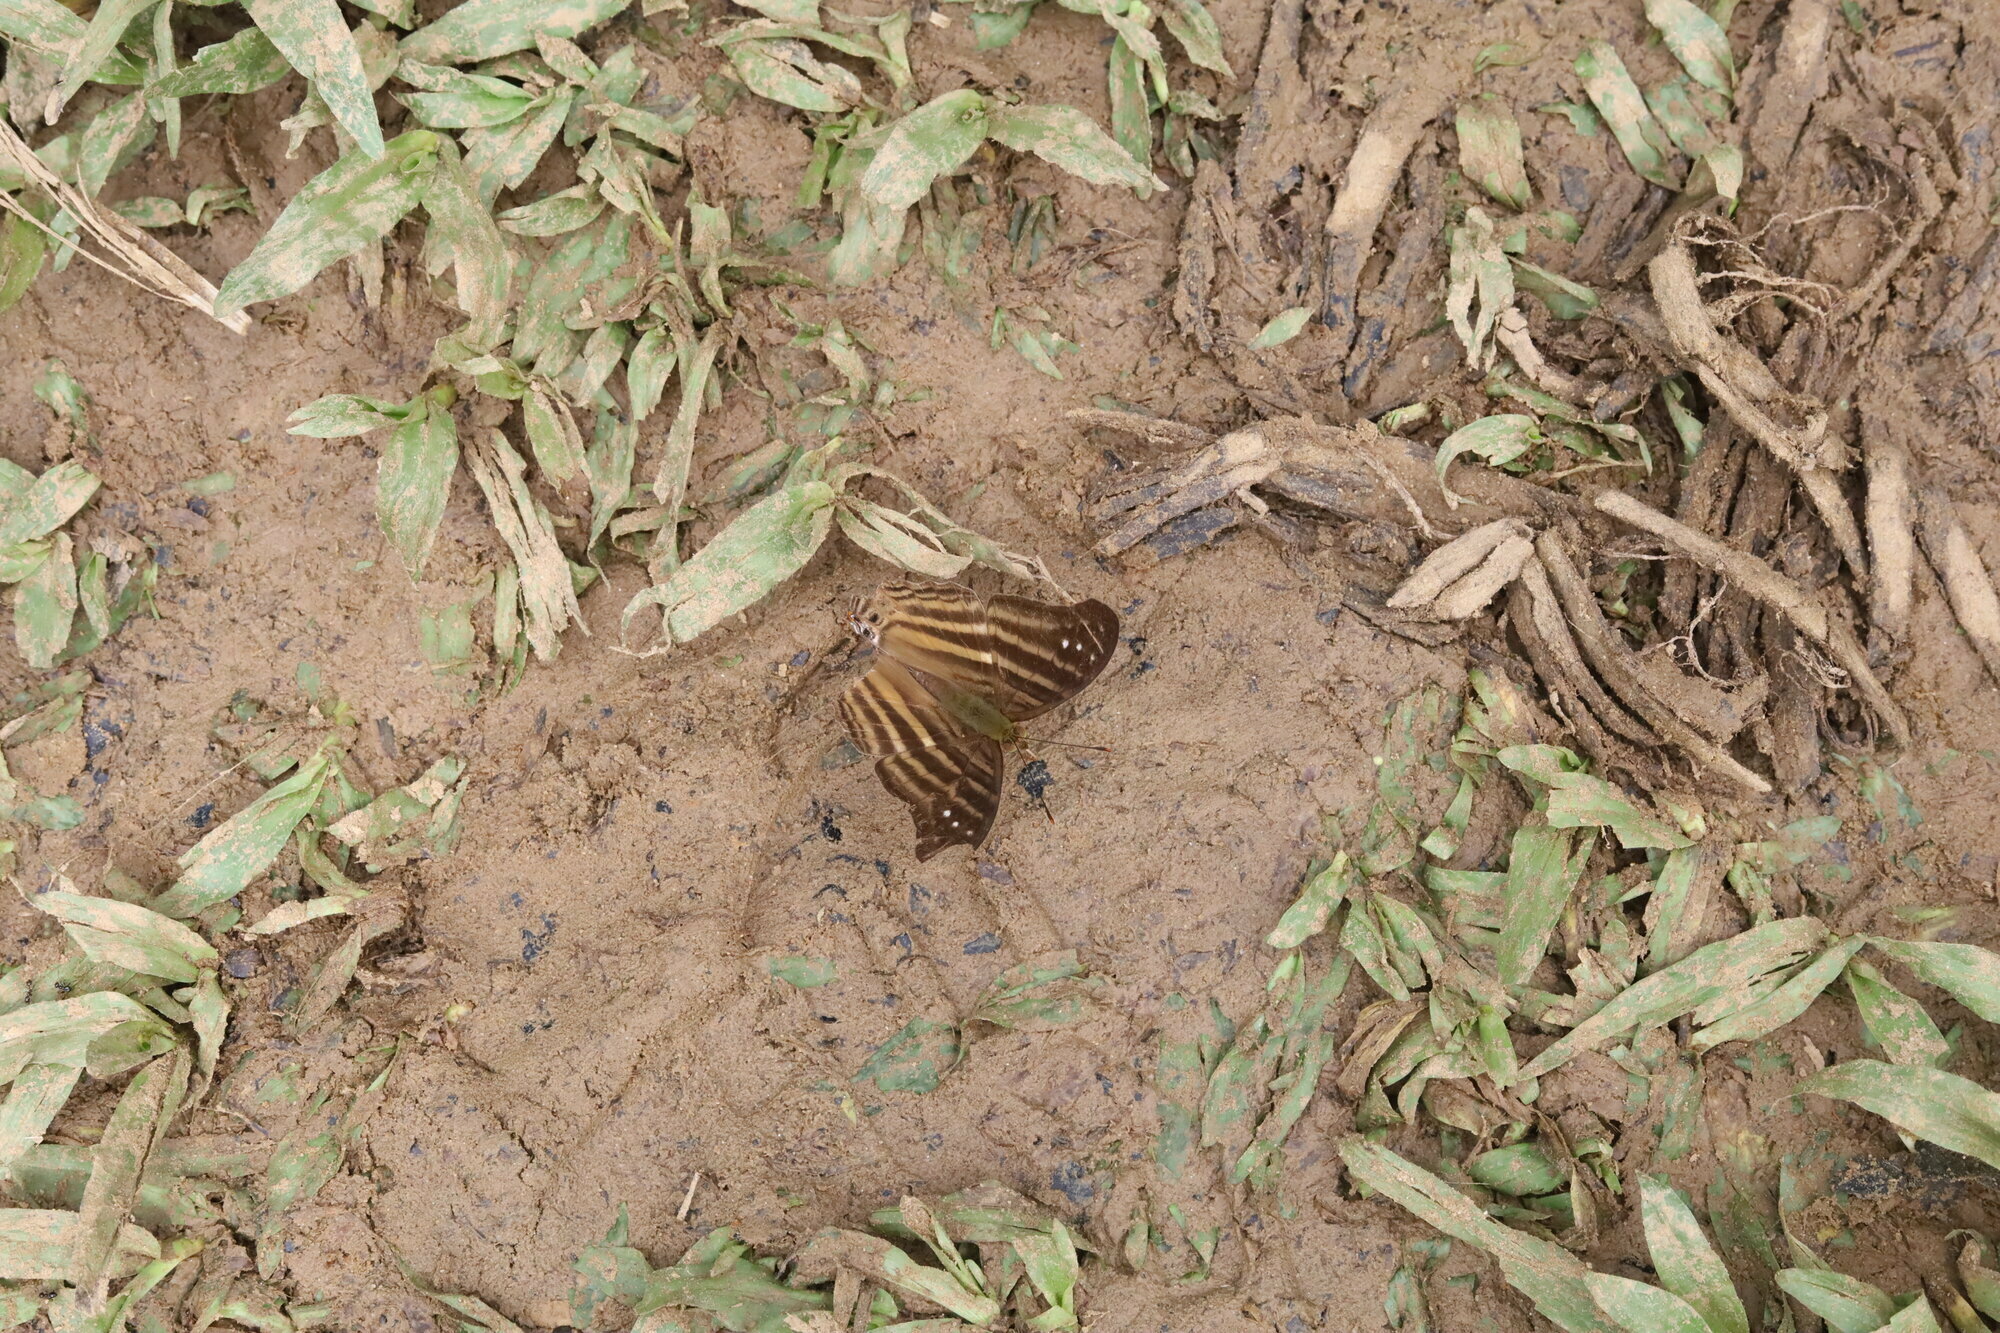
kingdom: Animalia
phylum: Arthropoda
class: Insecta
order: Lepidoptera
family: Nymphalidae
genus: Marpesia
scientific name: Marpesia chiron
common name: Many-banded daggerwing
